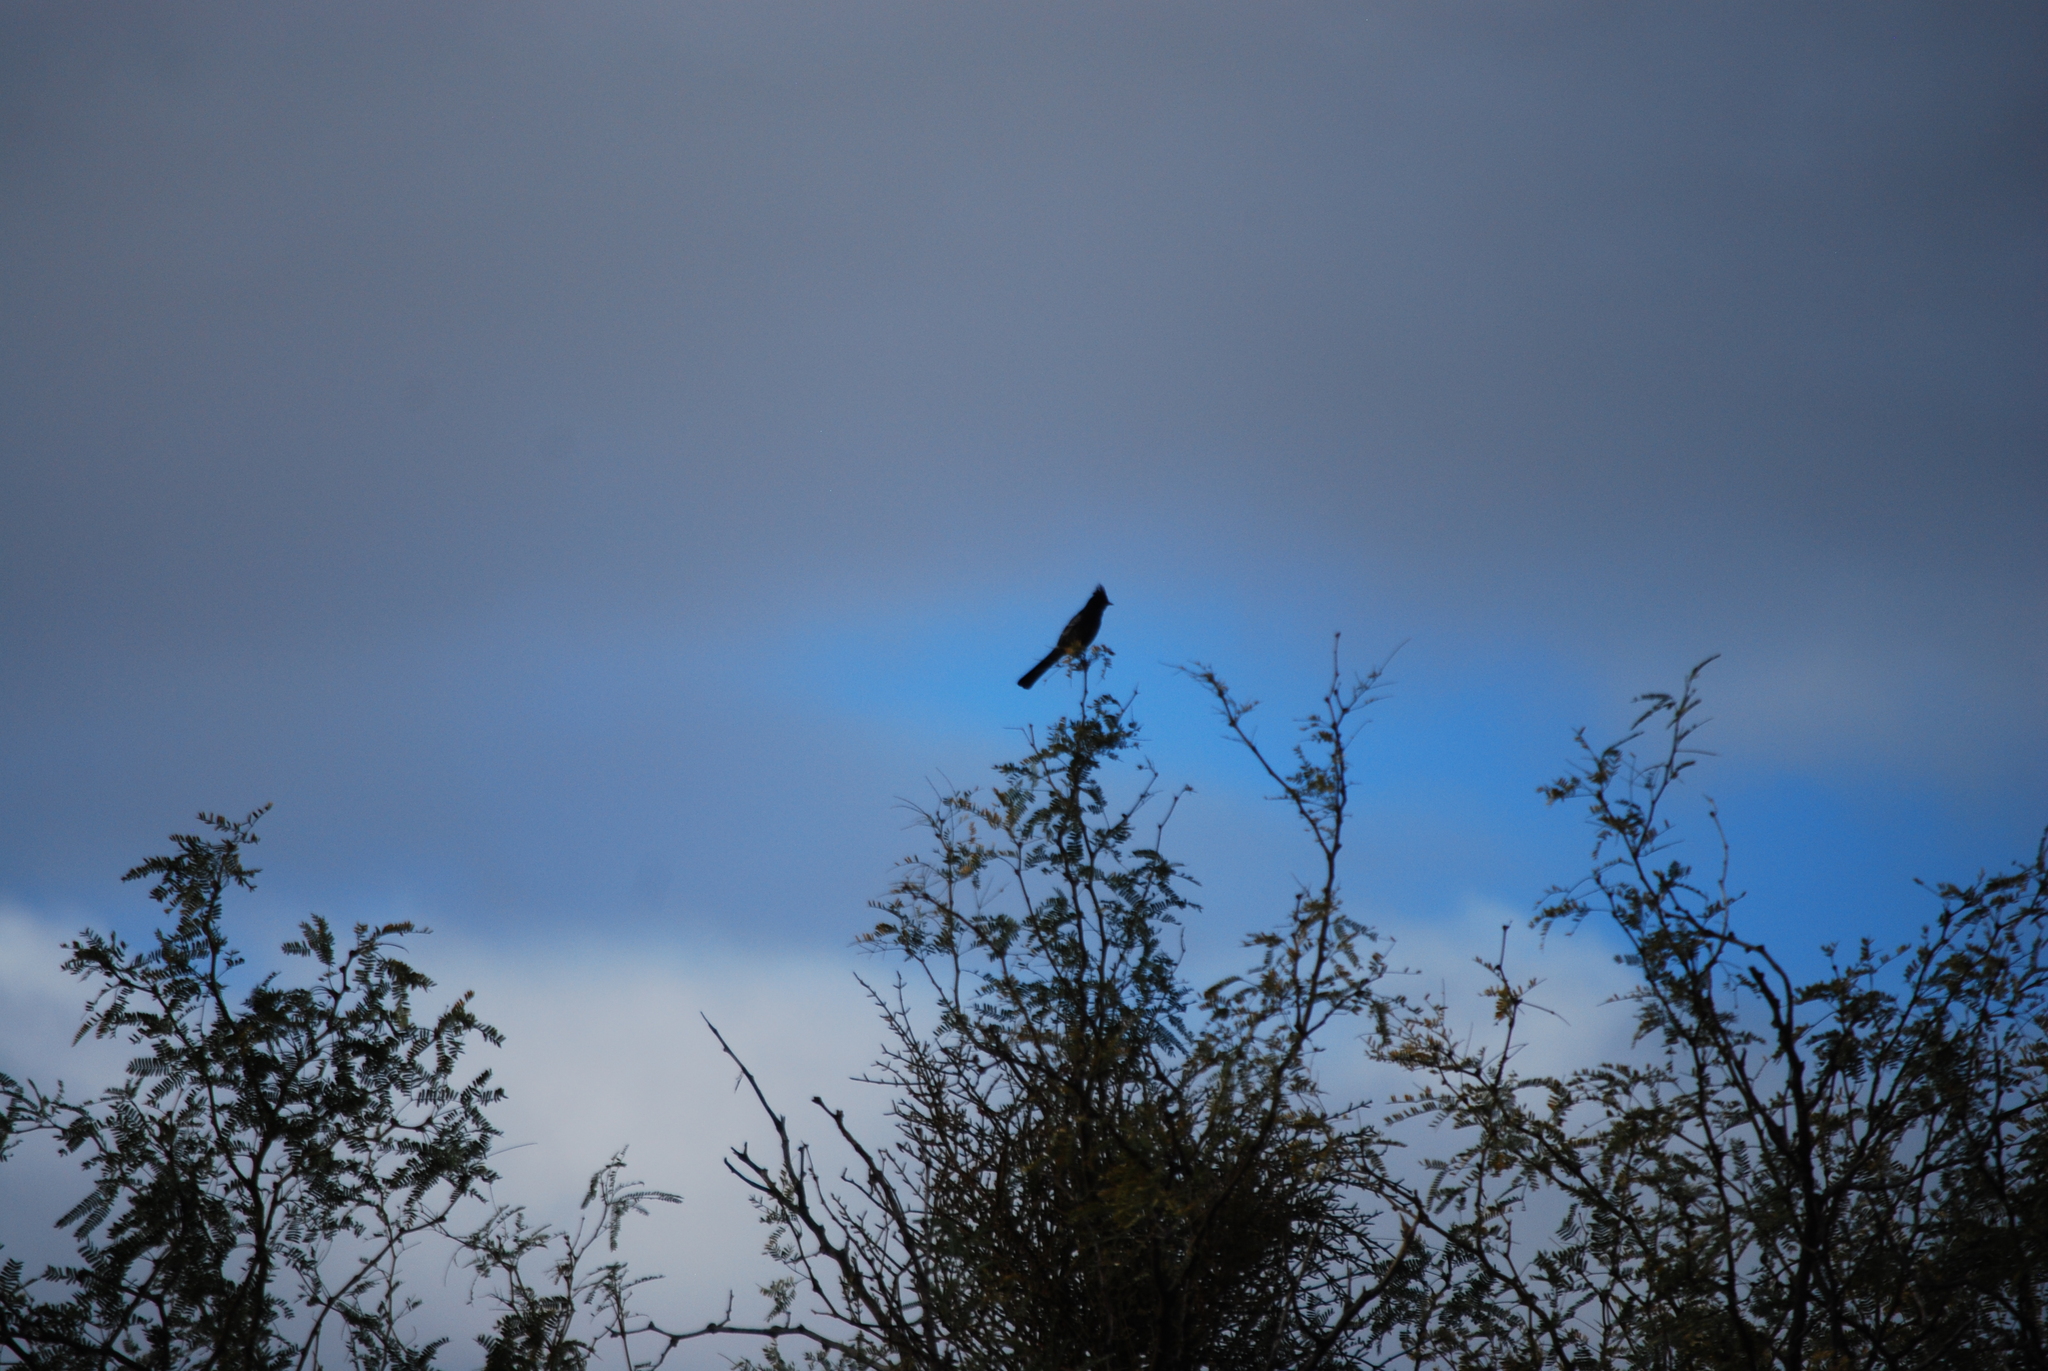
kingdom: Animalia
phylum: Chordata
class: Aves
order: Passeriformes
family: Ptilogonatidae
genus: Phainopepla
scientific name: Phainopepla nitens
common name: Phainopepla
